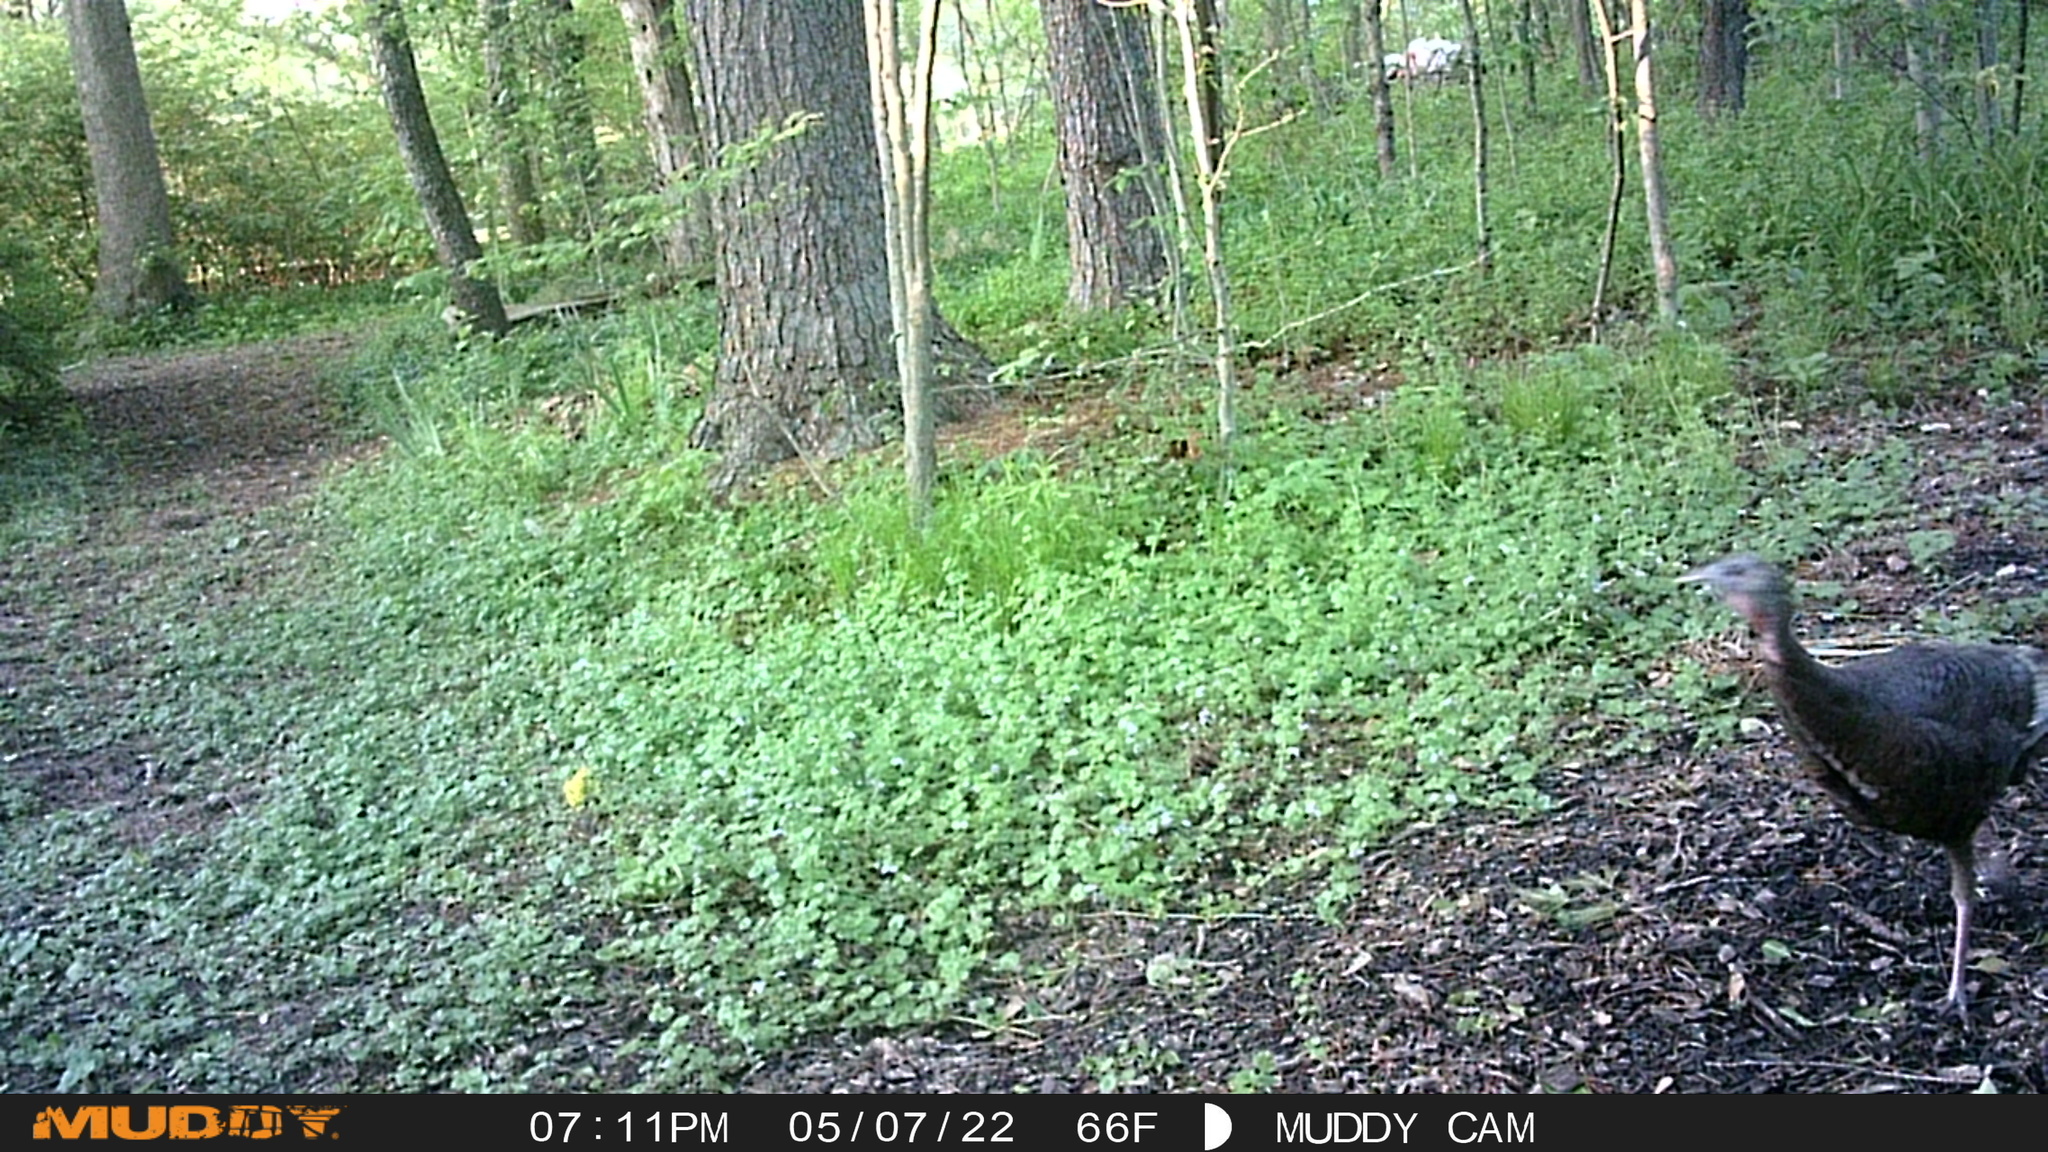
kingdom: Animalia
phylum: Chordata
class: Aves
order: Galliformes
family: Phasianidae
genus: Meleagris
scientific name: Meleagris gallopavo
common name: Wild turkey
